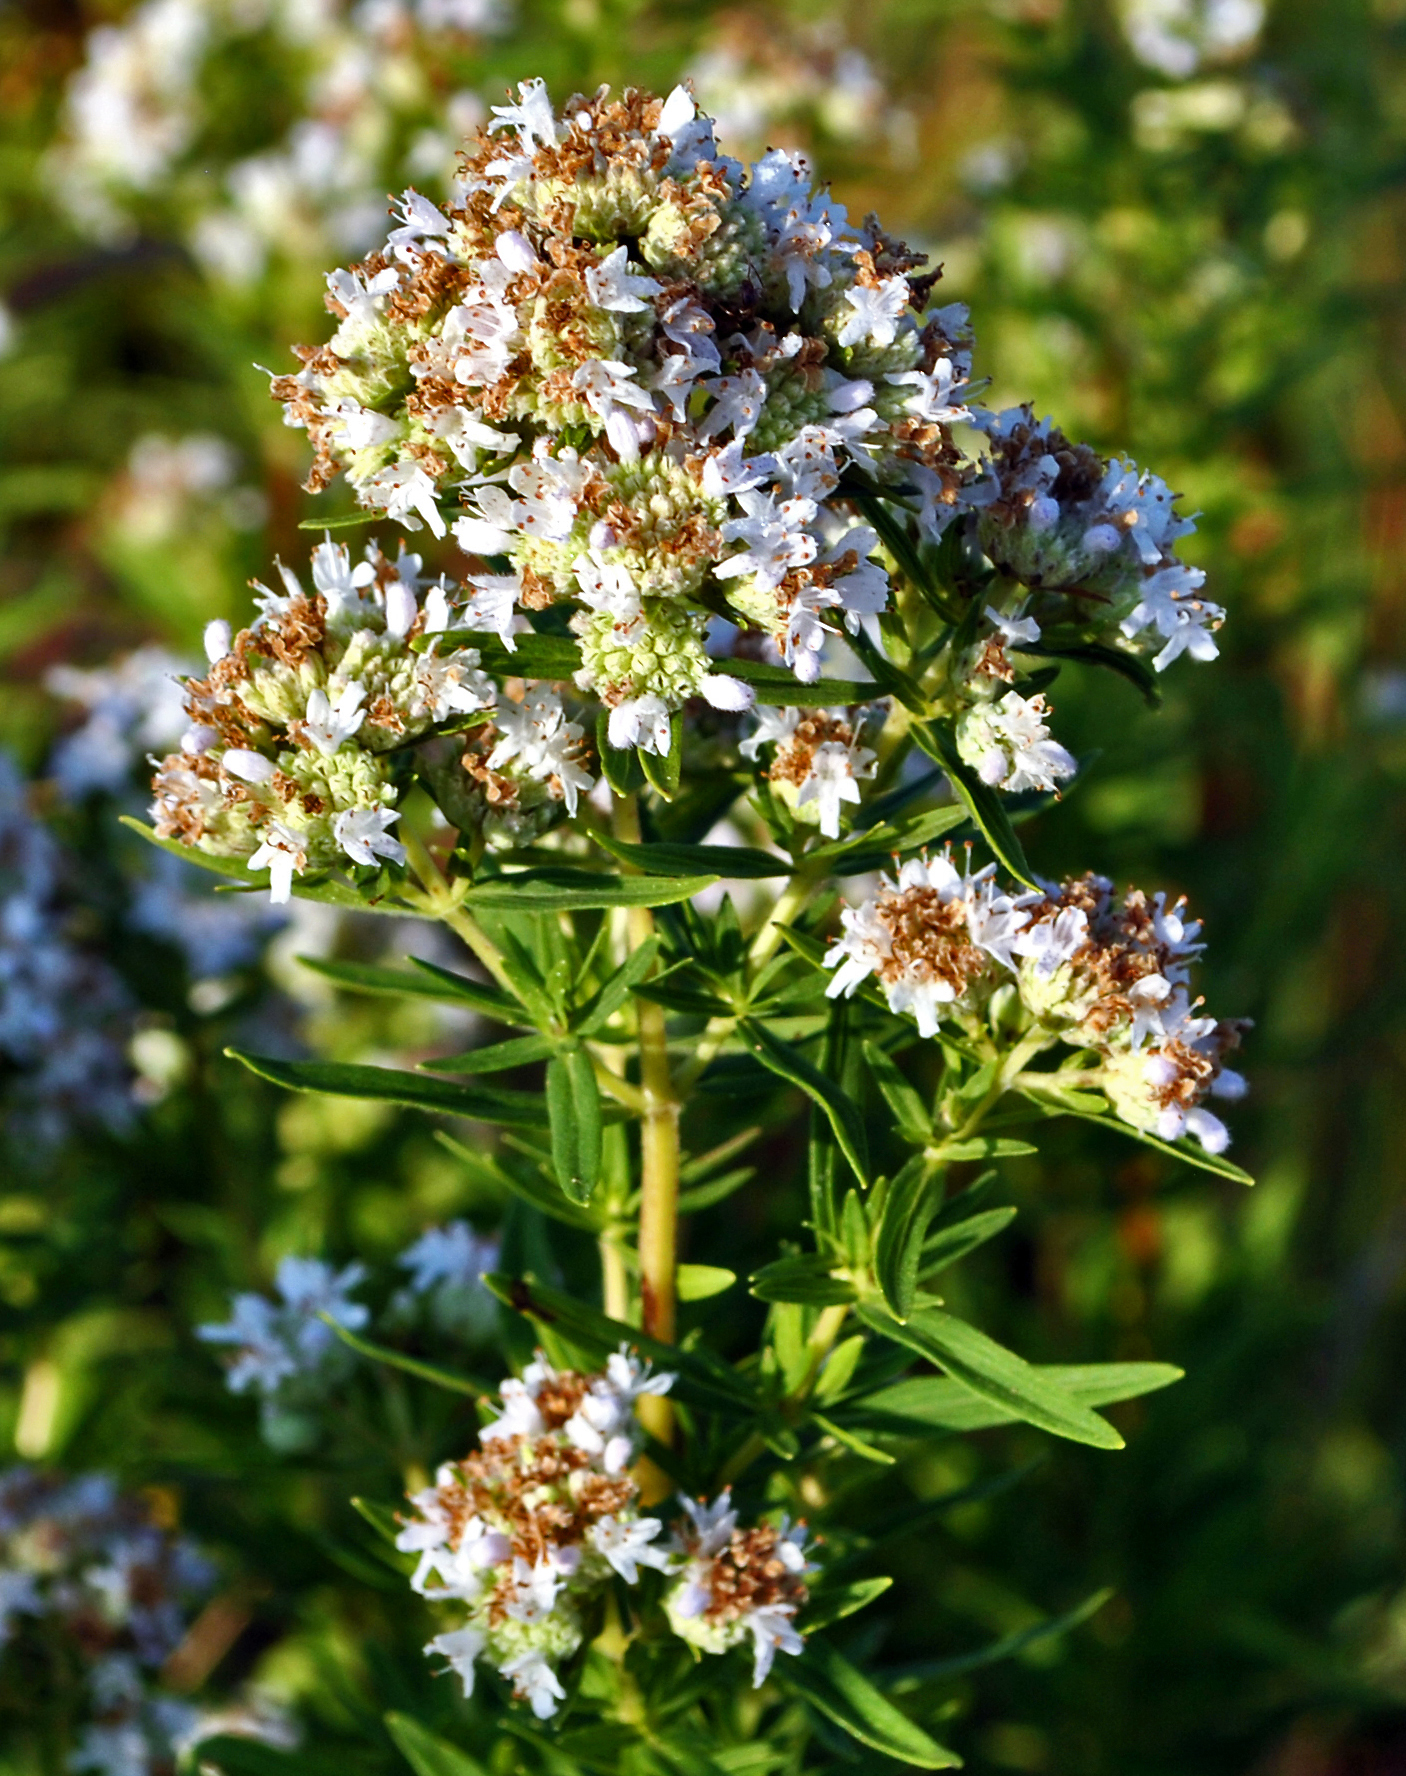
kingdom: Plantae
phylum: Tracheophyta
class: Magnoliopsida
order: Lamiales
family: Lamiaceae
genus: Pycnanthemum
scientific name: Pycnanthemum virginianum
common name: Virginia mountain-mint
